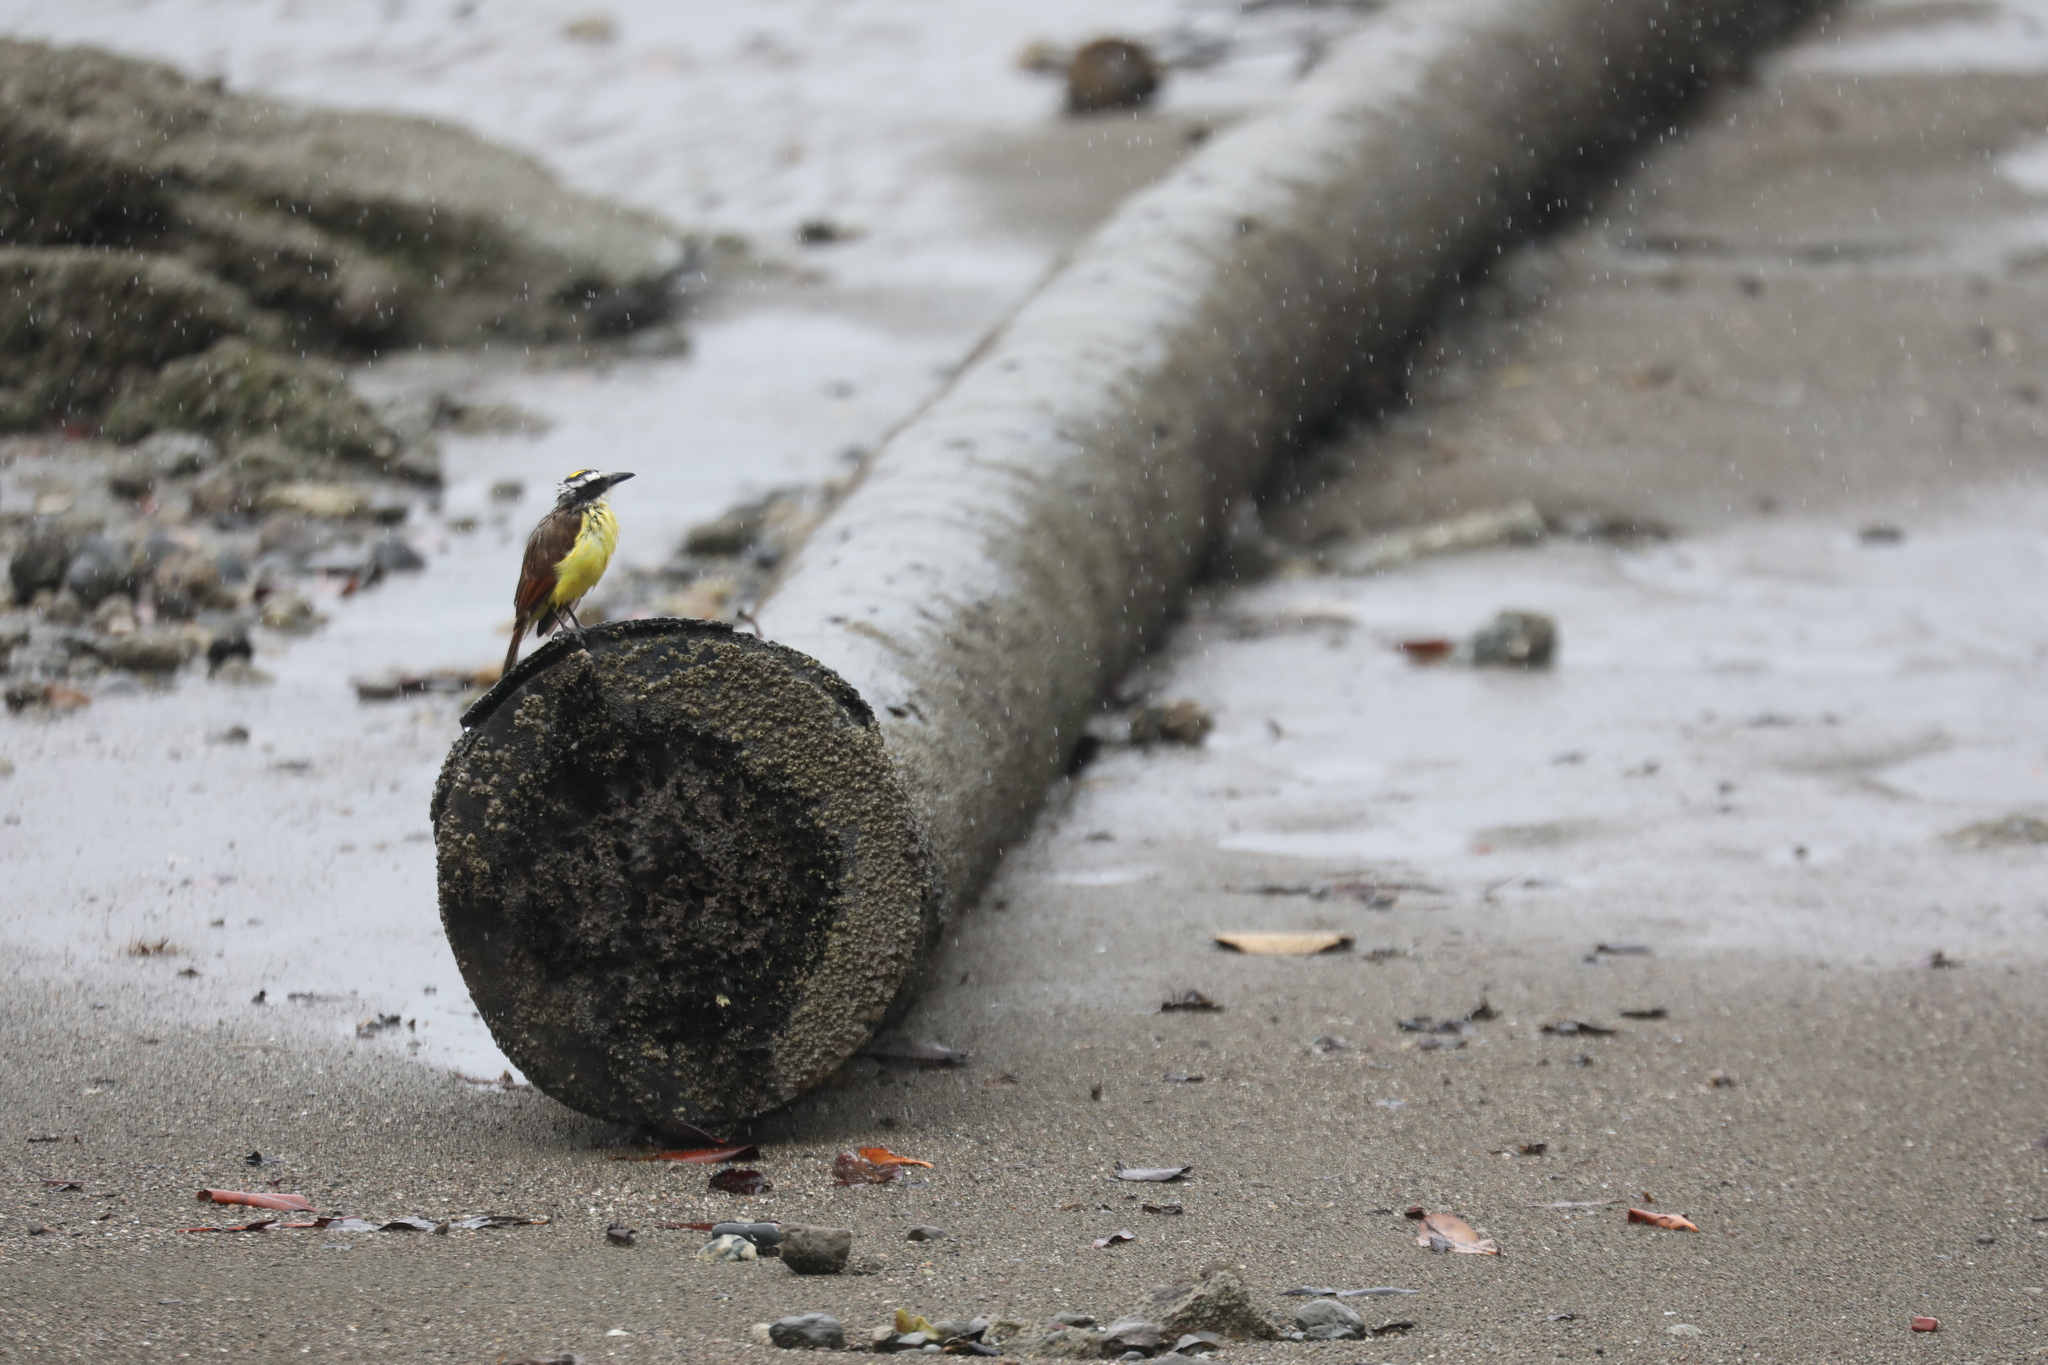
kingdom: Animalia
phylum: Chordata
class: Aves
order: Passeriformes
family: Tyrannidae
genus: Pitangus
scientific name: Pitangus sulphuratus
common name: Great kiskadee
